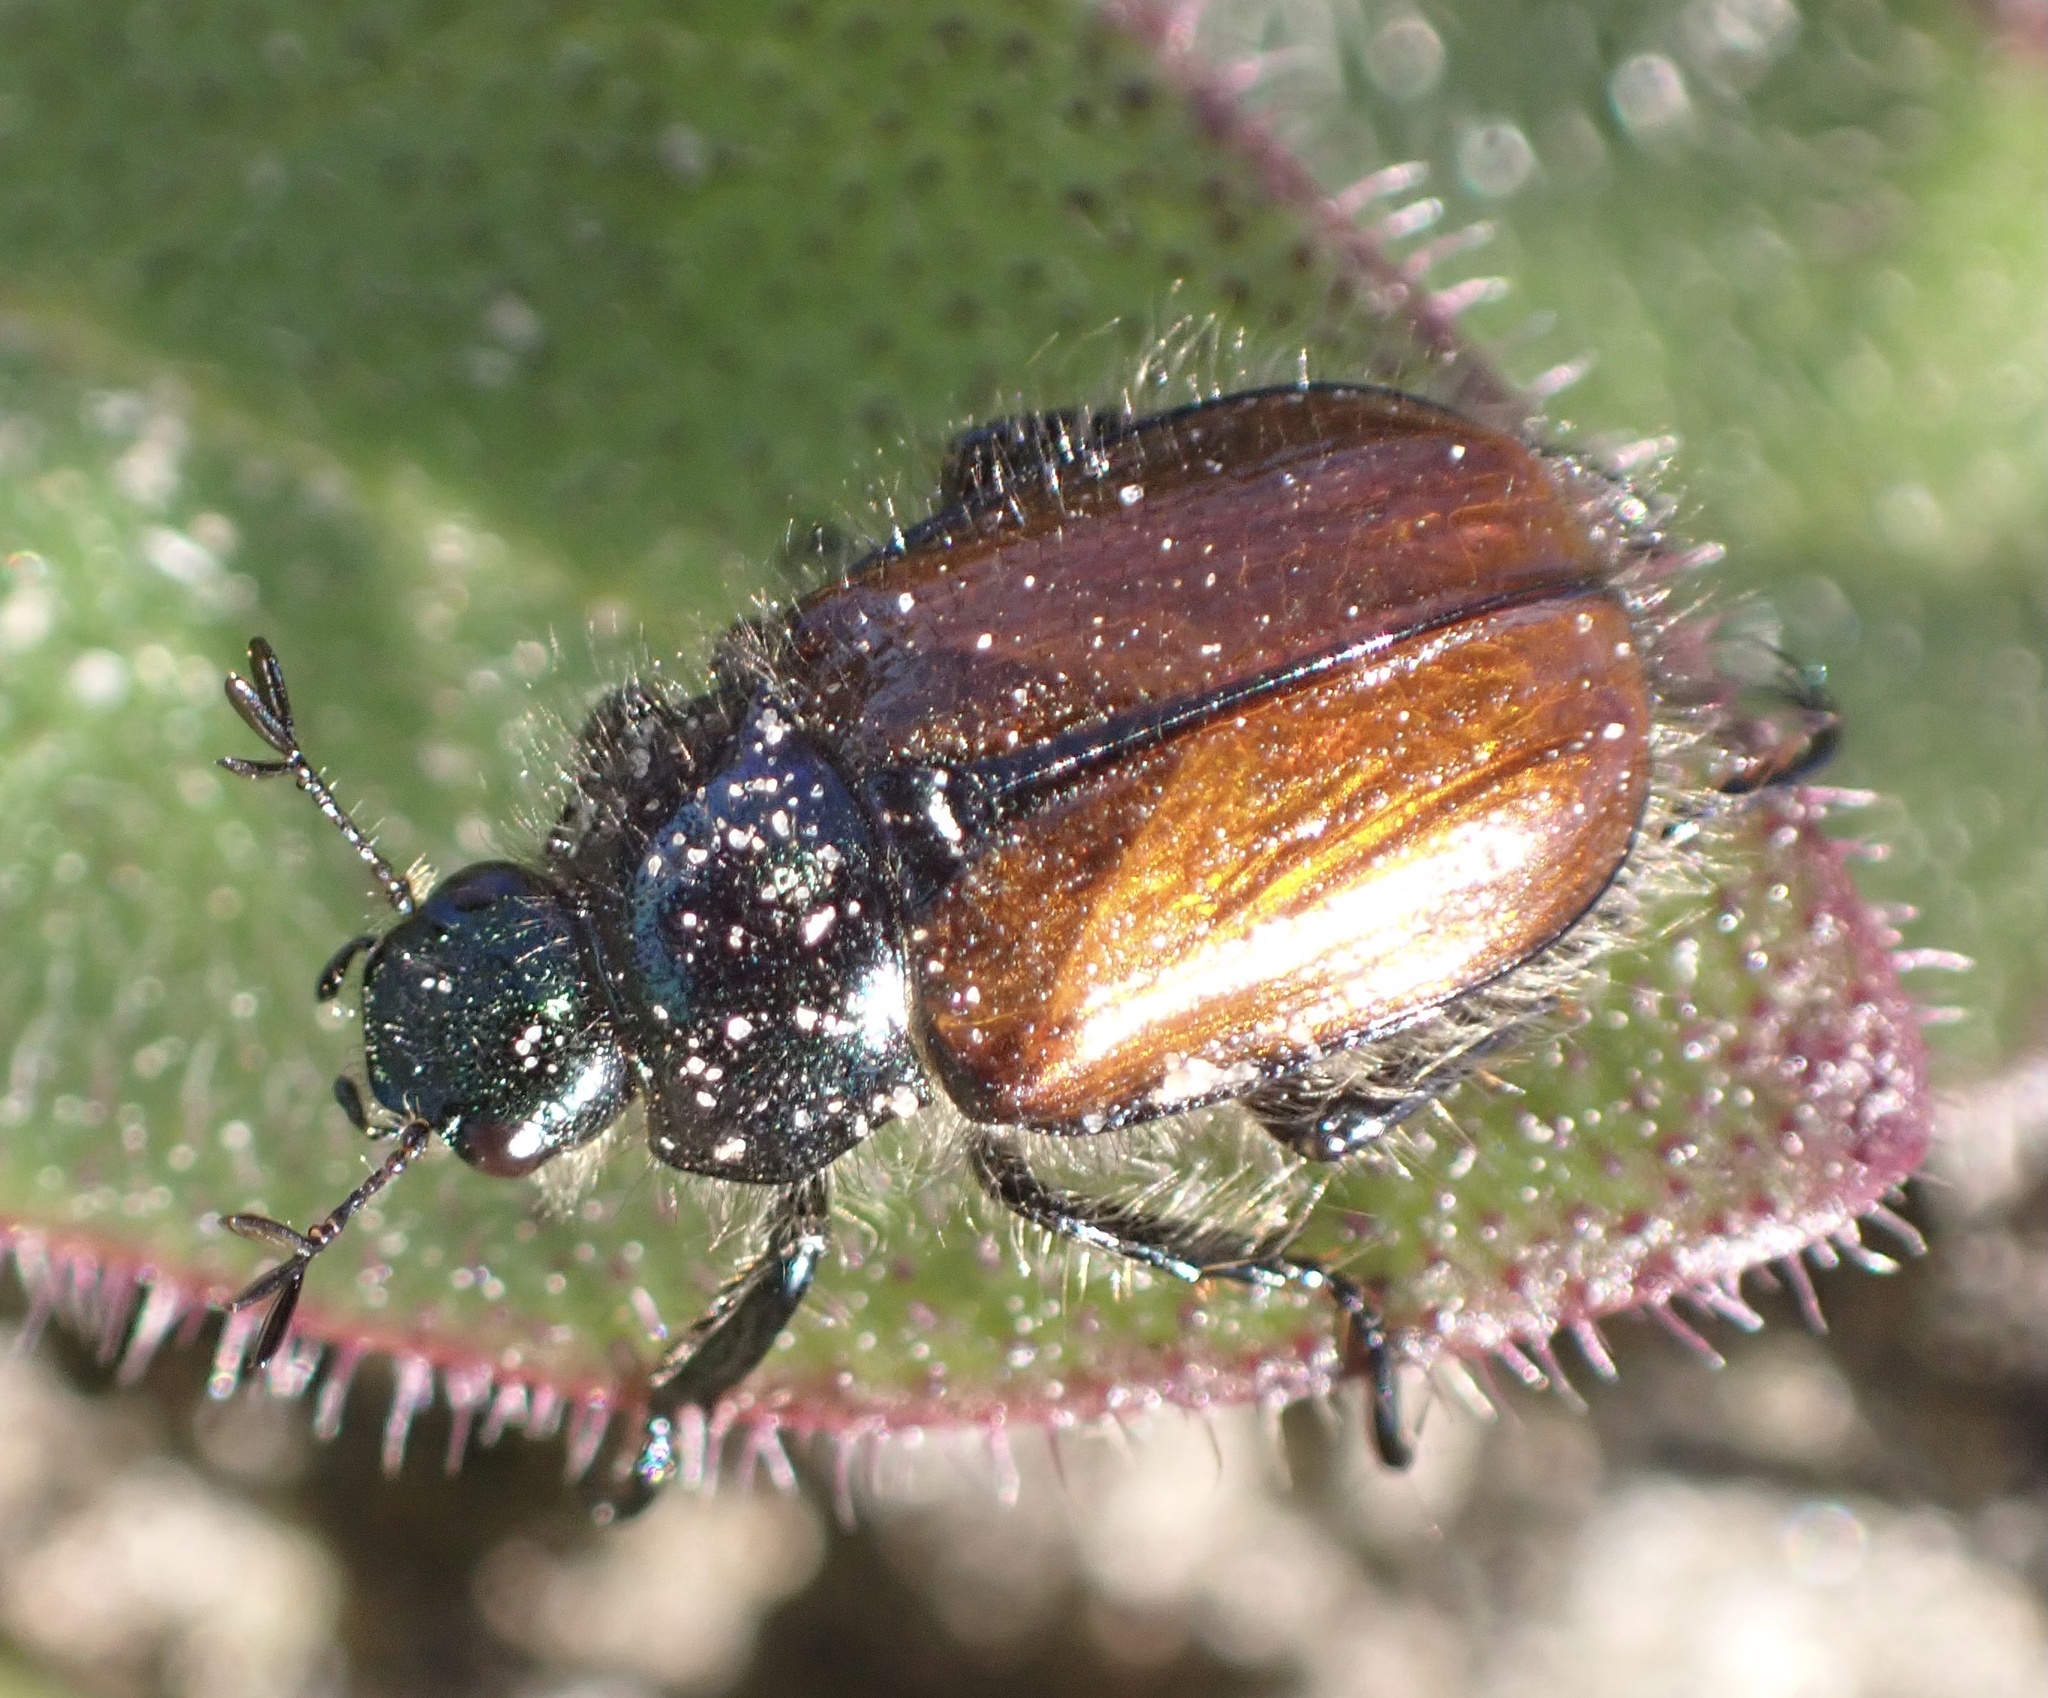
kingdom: Animalia
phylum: Arthropoda
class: Insecta
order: Coleoptera
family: Scarabaeidae
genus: Phyllopertha
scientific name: Phyllopertha horticola
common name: Garden chafer
